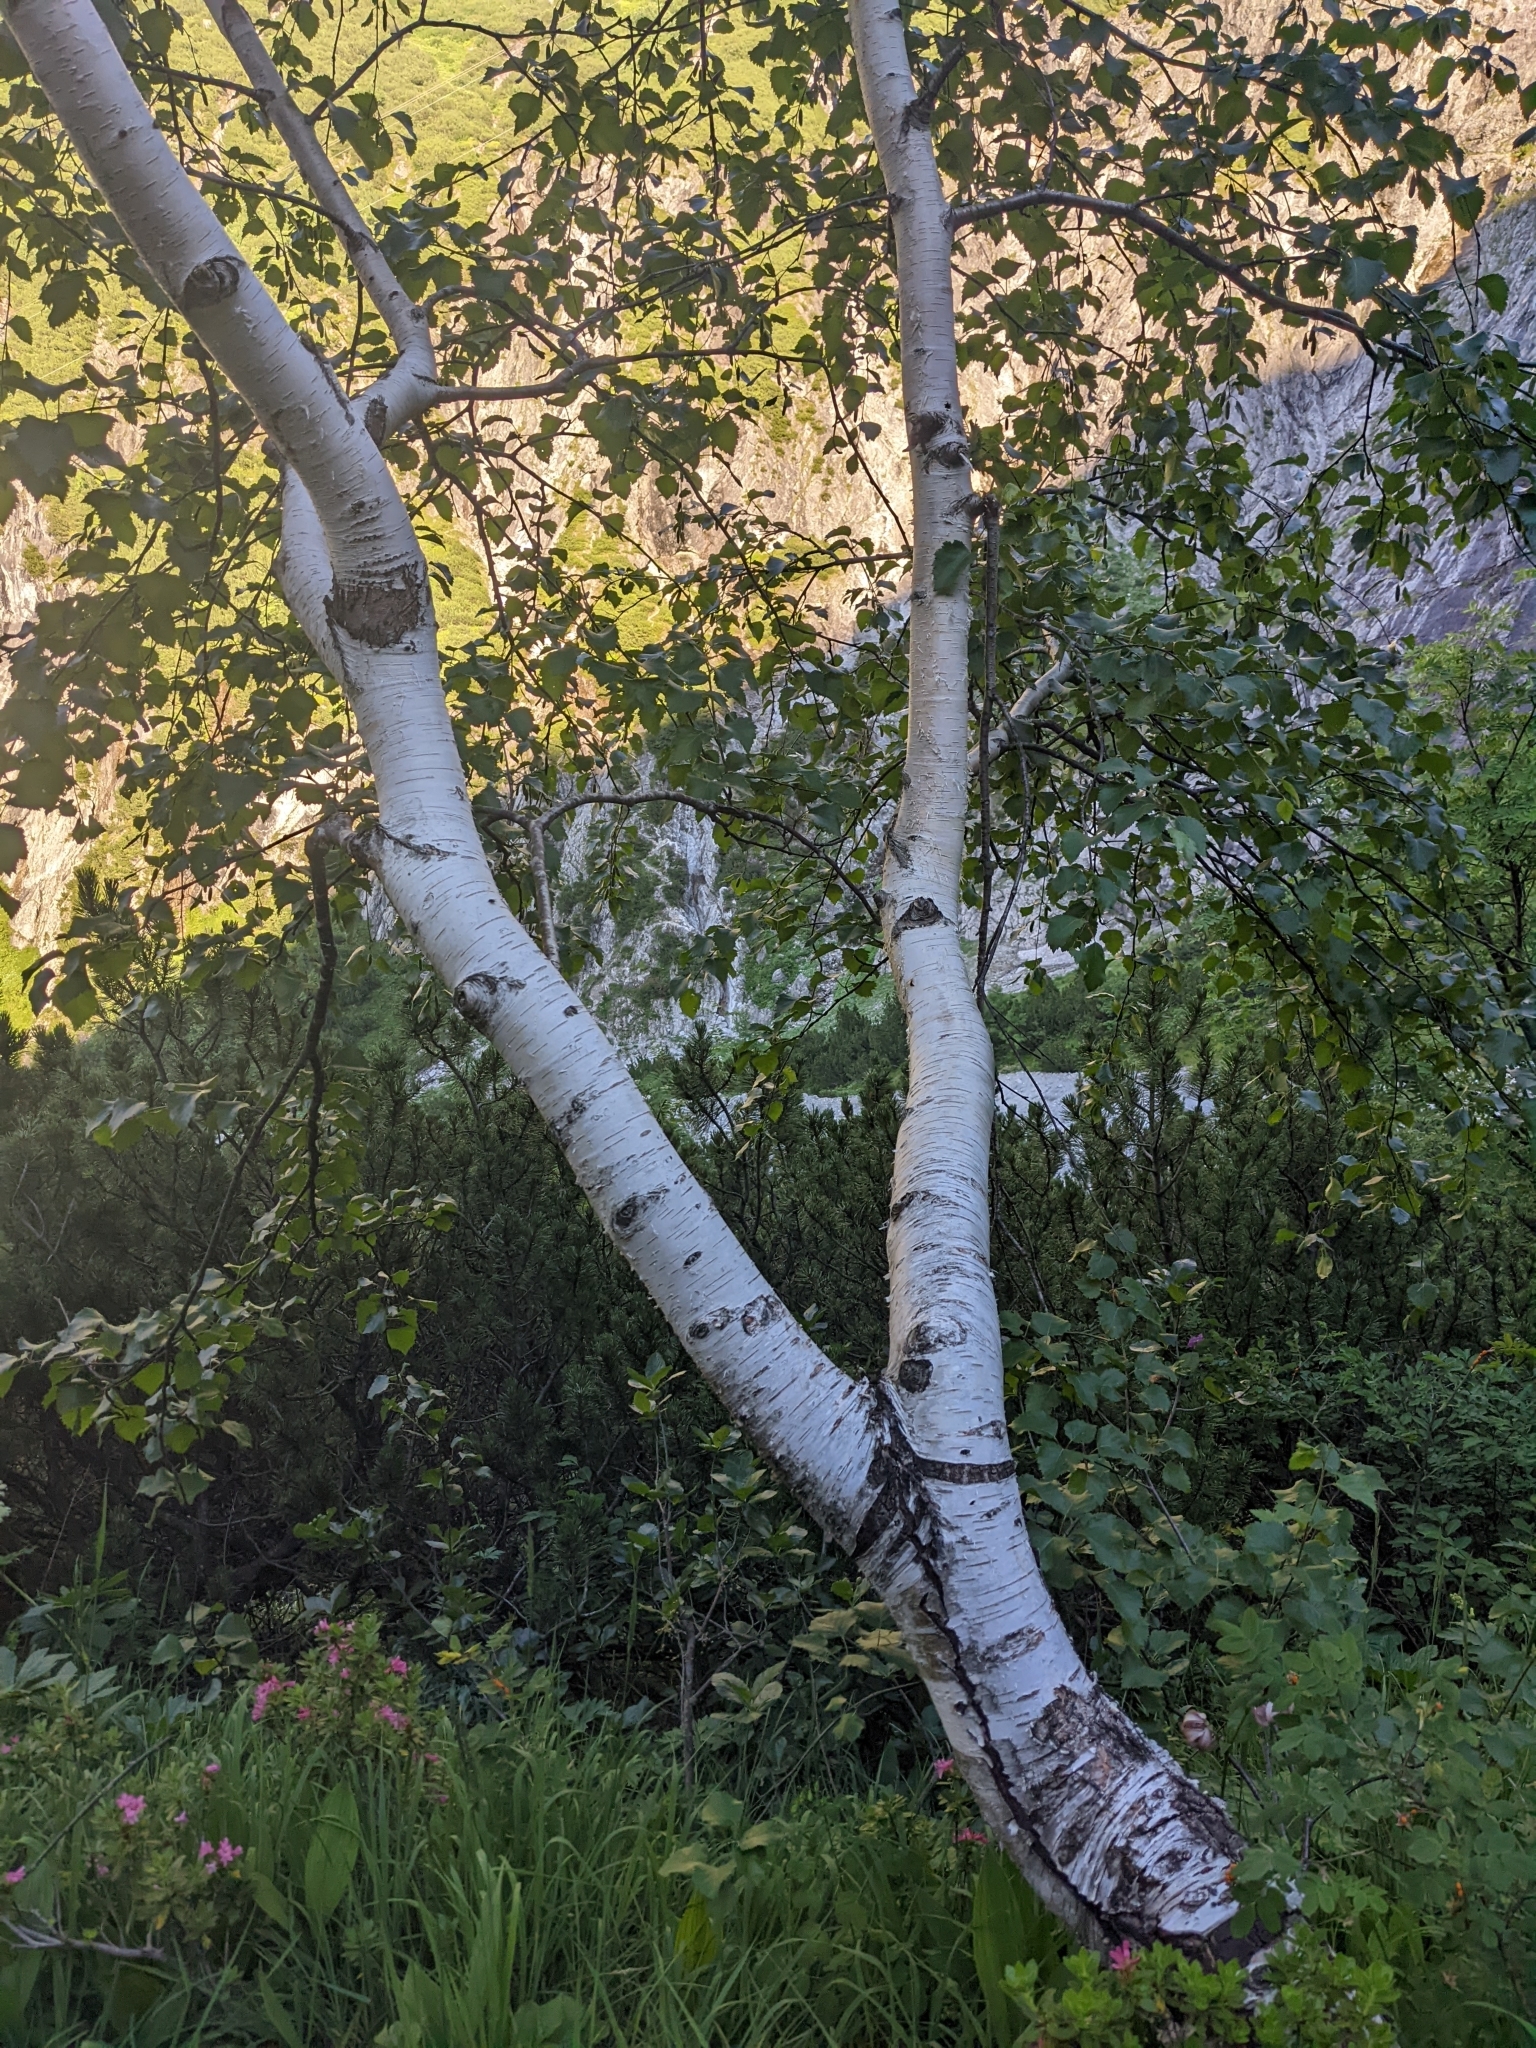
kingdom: Plantae
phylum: Tracheophyta
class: Magnoliopsida
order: Fagales
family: Betulaceae
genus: Betula
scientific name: Betula pendula
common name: Silver birch
